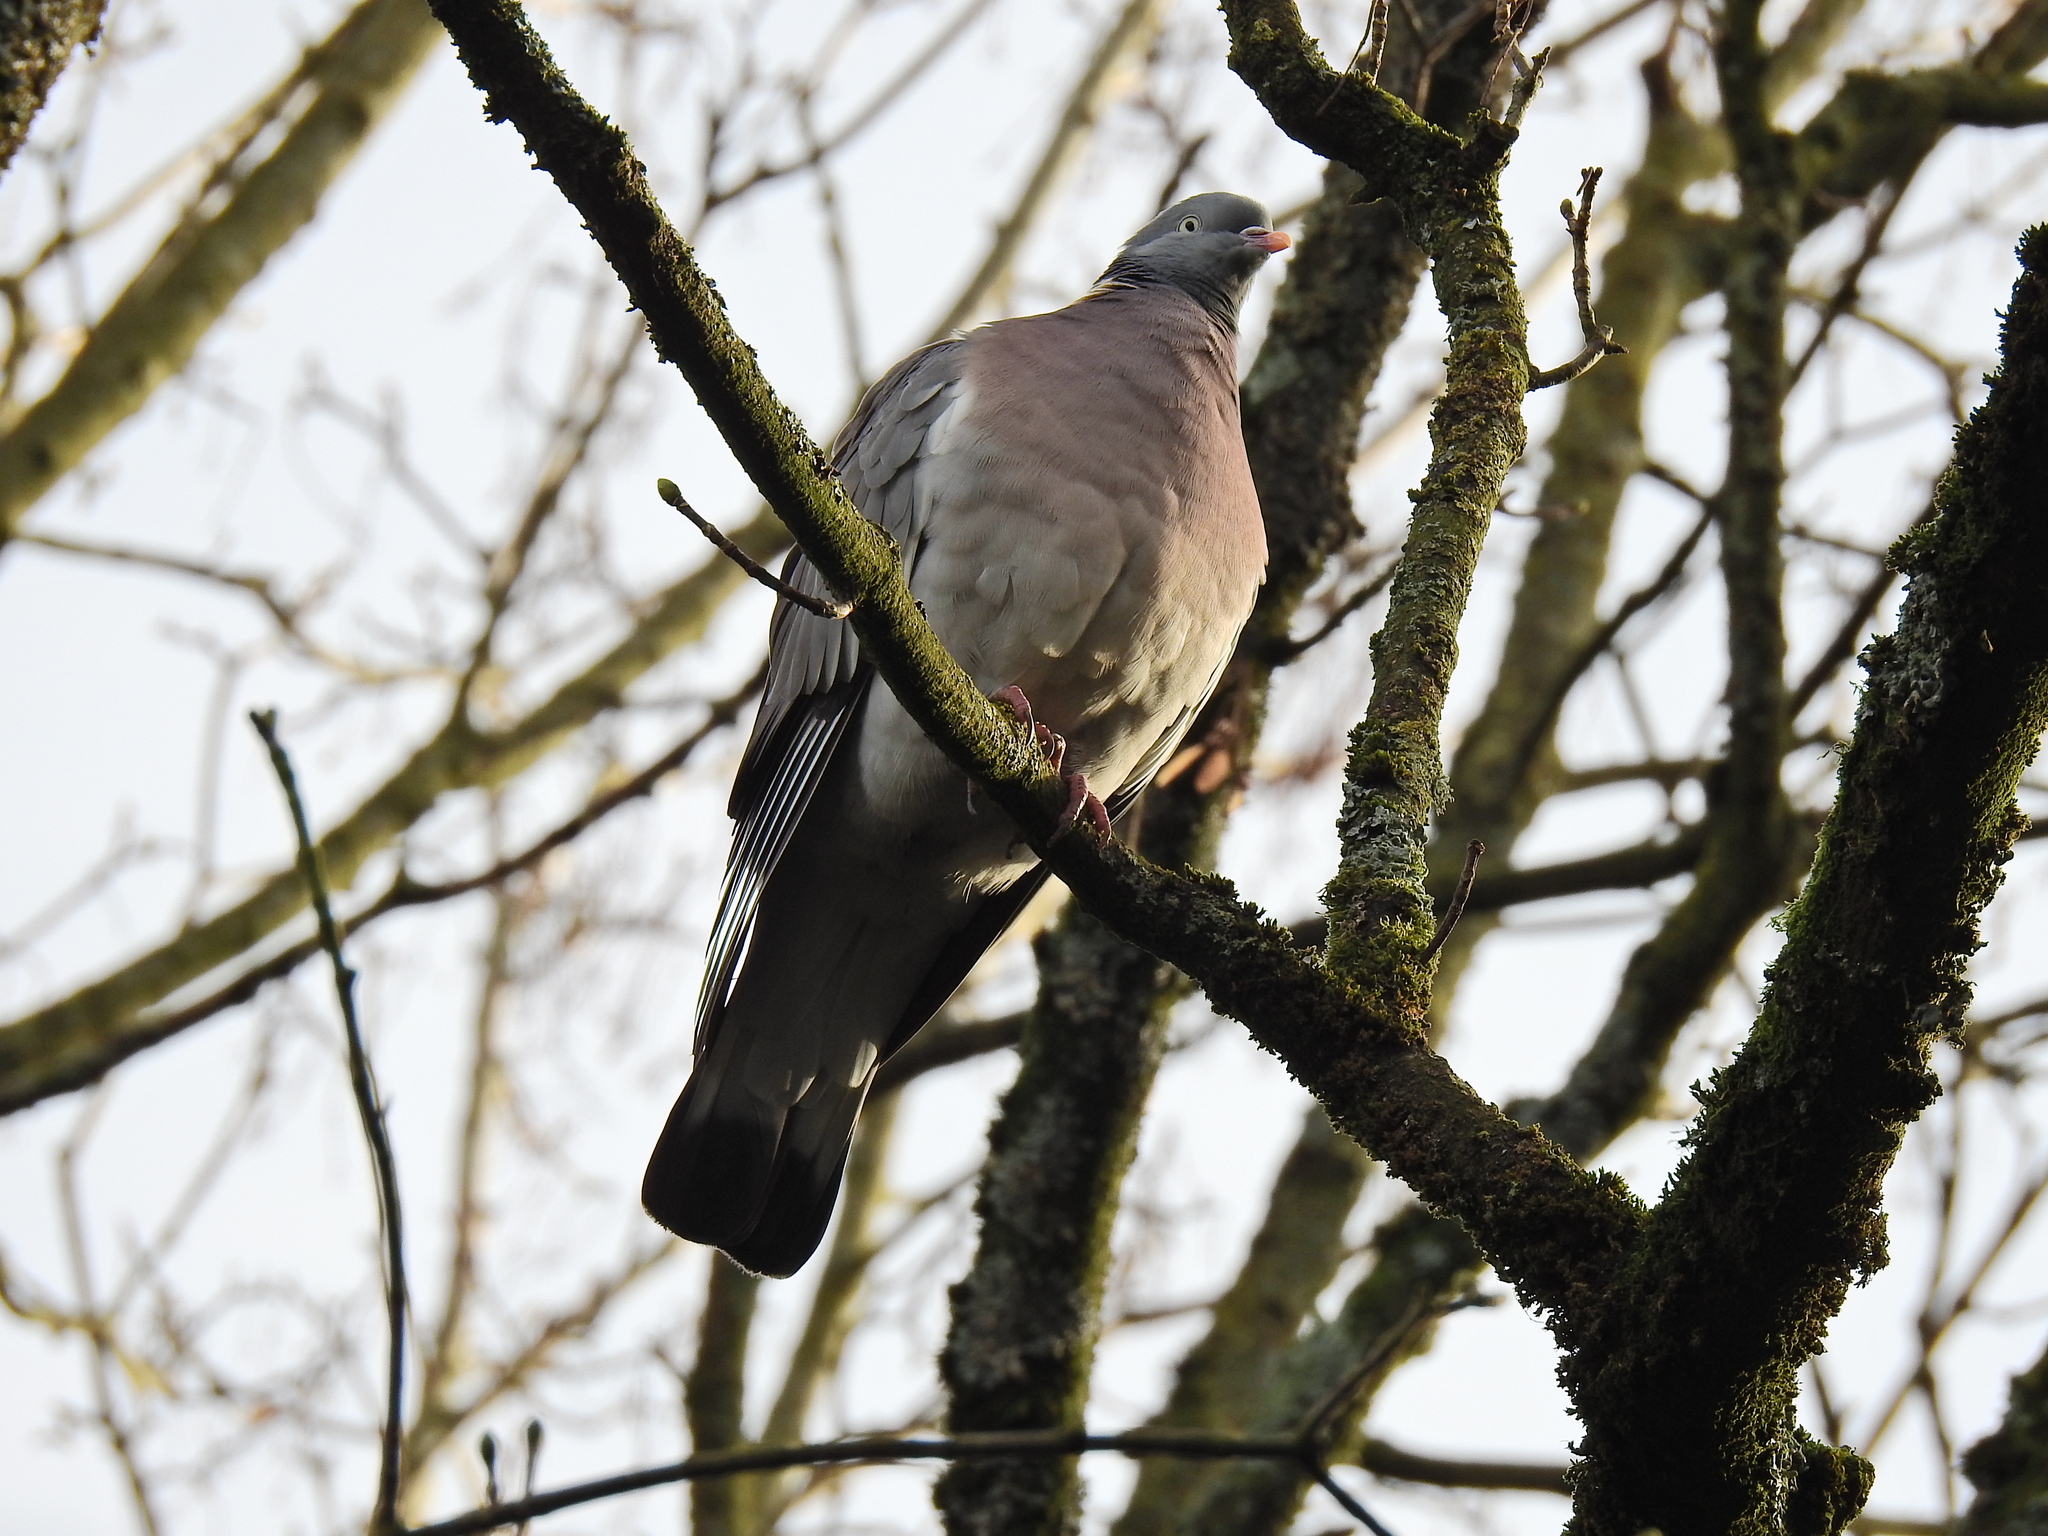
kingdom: Animalia
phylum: Chordata
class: Aves
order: Columbiformes
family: Columbidae
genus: Columba
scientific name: Columba palumbus
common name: Common wood pigeon
